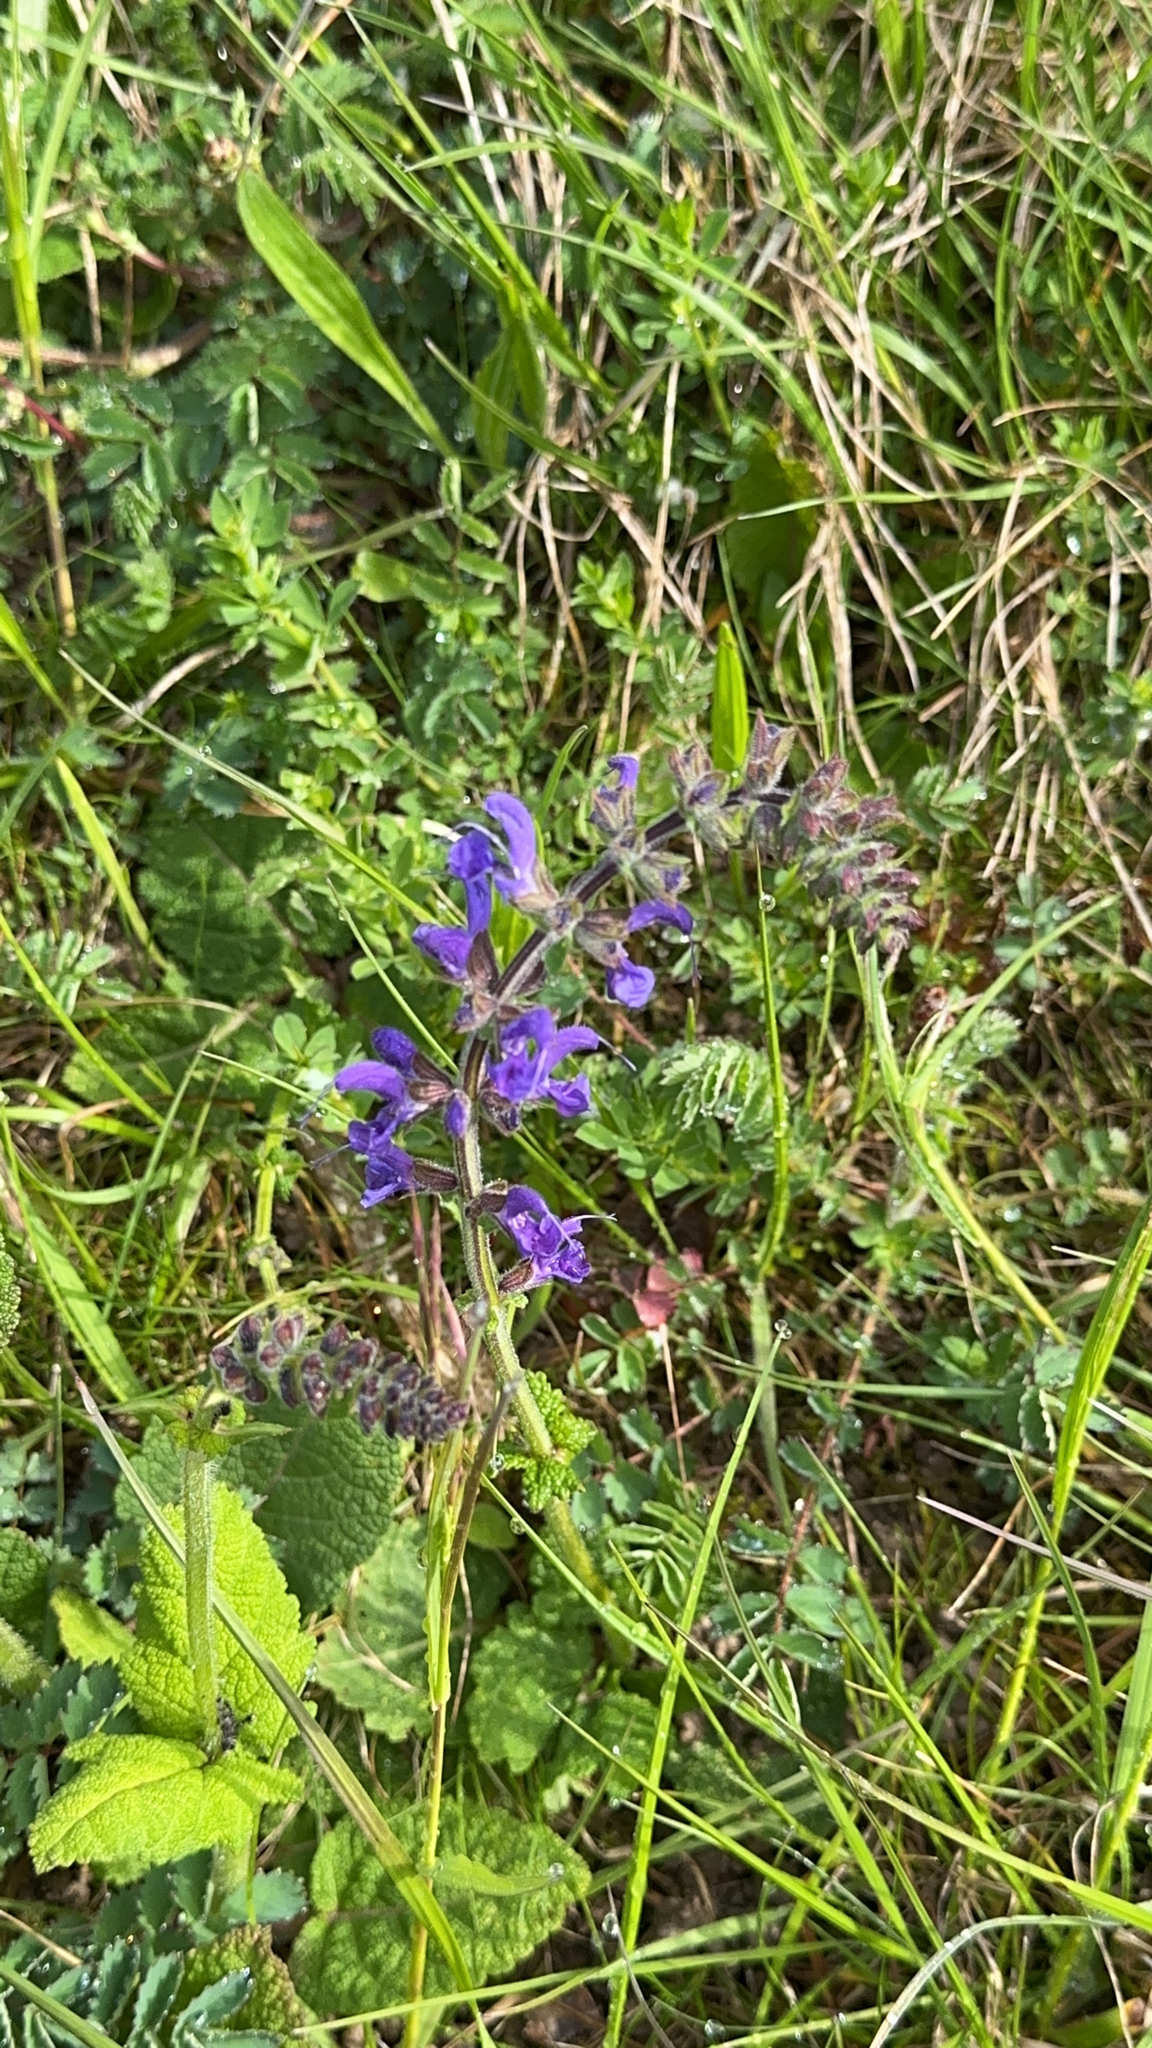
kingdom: Plantae
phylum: Tracheophyta
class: Magnoliopsida
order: Lamiales
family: Lamiaceae
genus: Salvia
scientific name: Salvia pratensis
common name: Meadow sage
